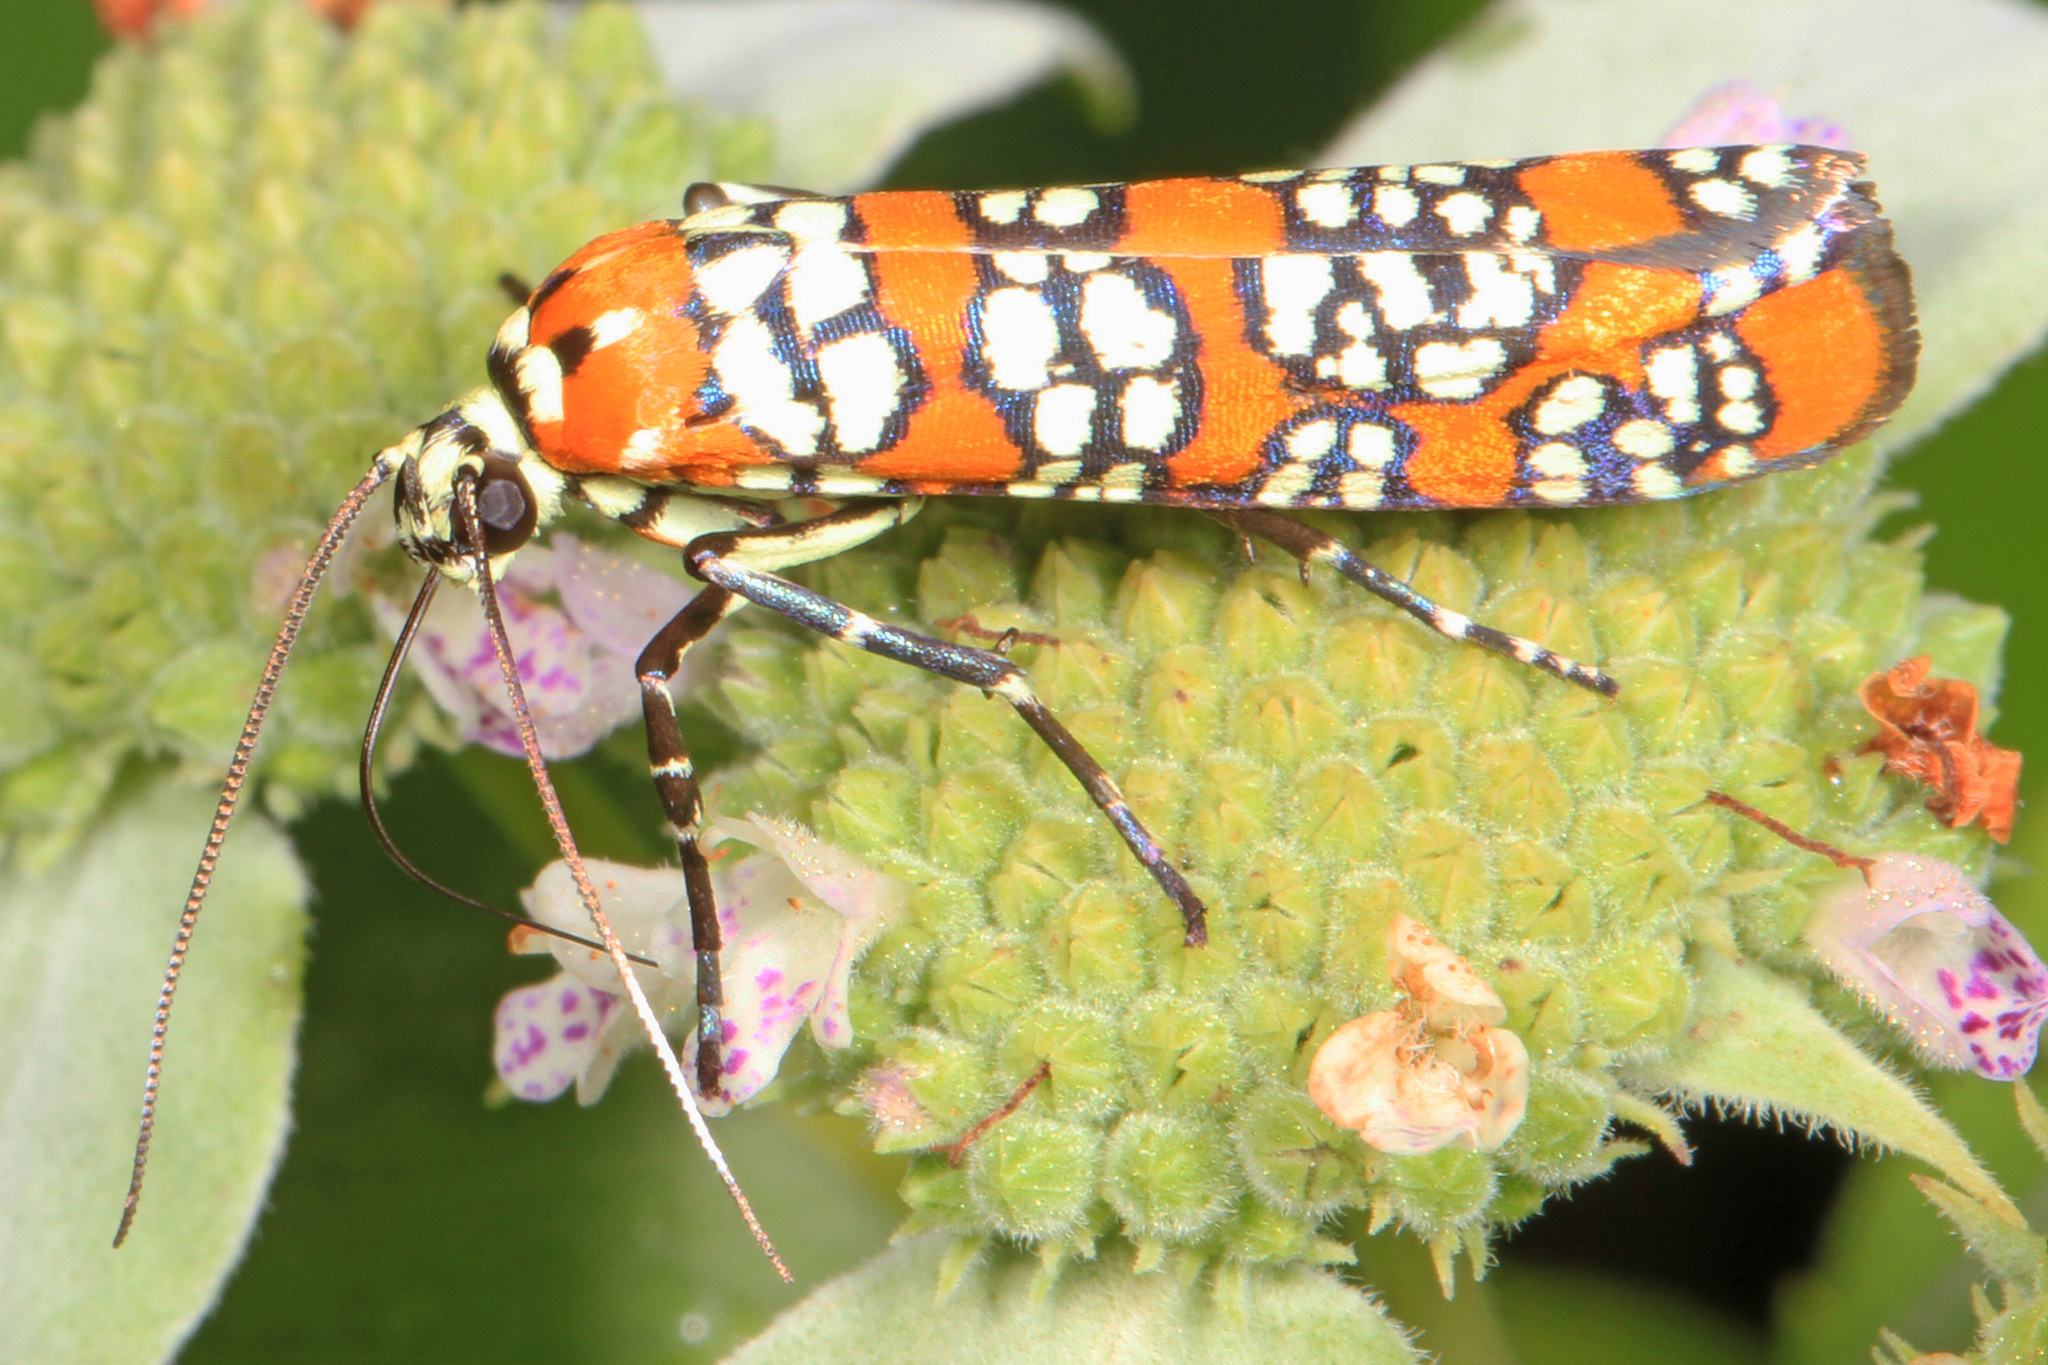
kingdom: Animalia
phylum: Arthropoda
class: Insecta
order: Lepidoptera
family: Attevidae
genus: Atteva
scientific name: Atteva punctella
